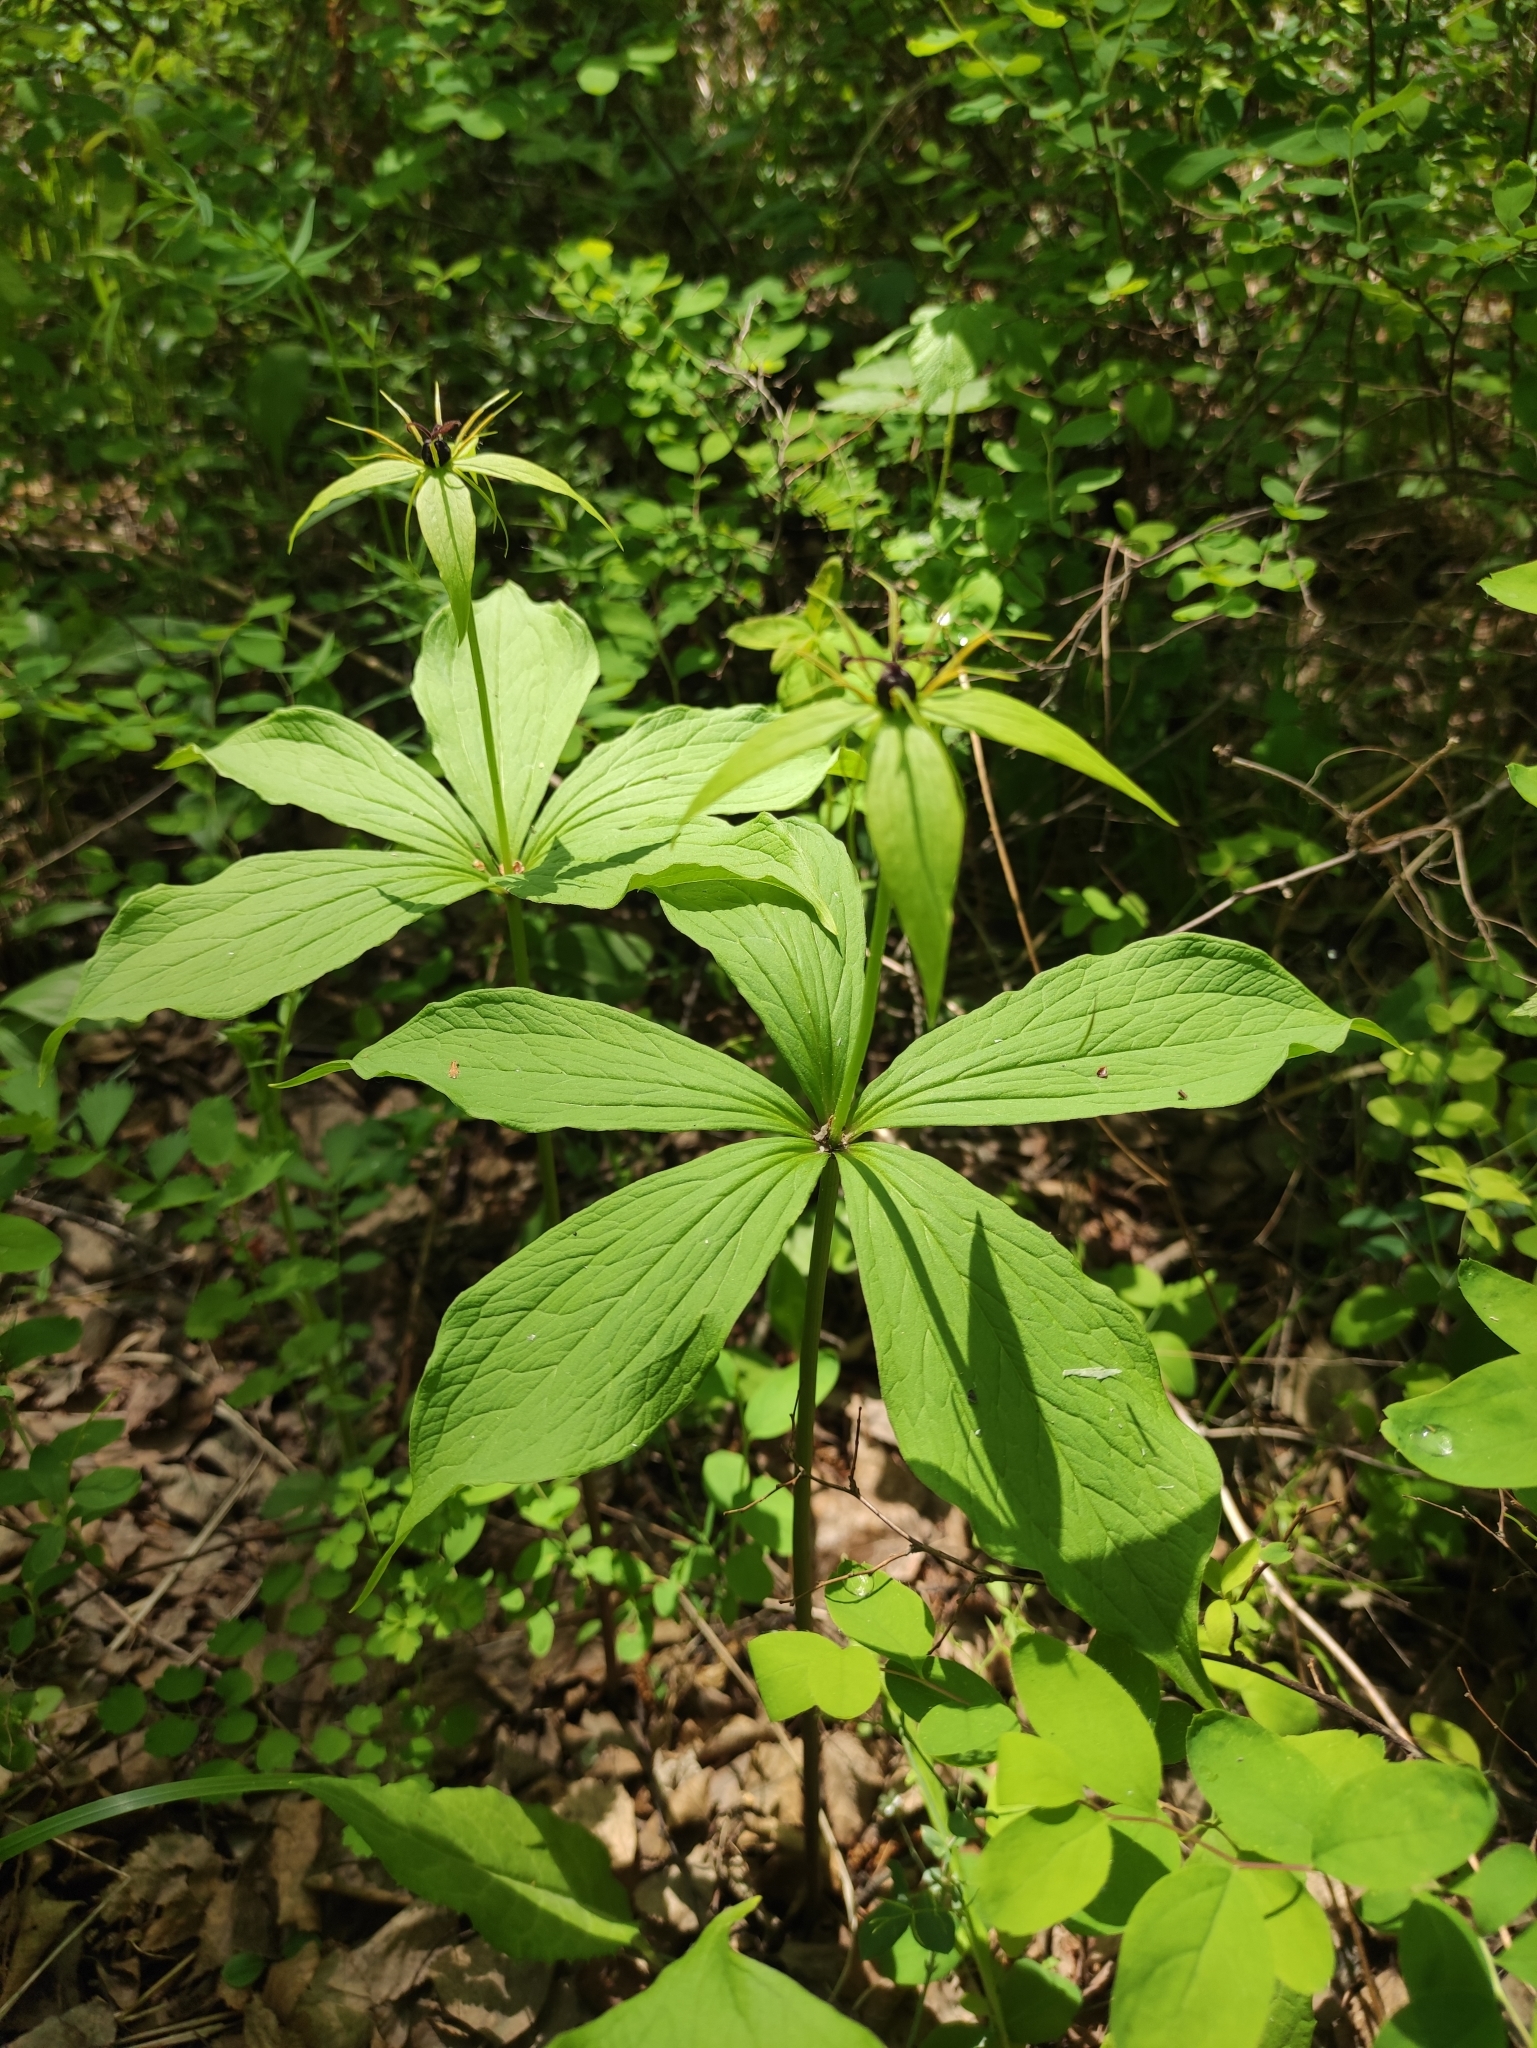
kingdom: Plantae
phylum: Tracheophyta
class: Liliopsida
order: Liliales
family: Melanthiaceae
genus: Paris
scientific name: Paris verticillata
